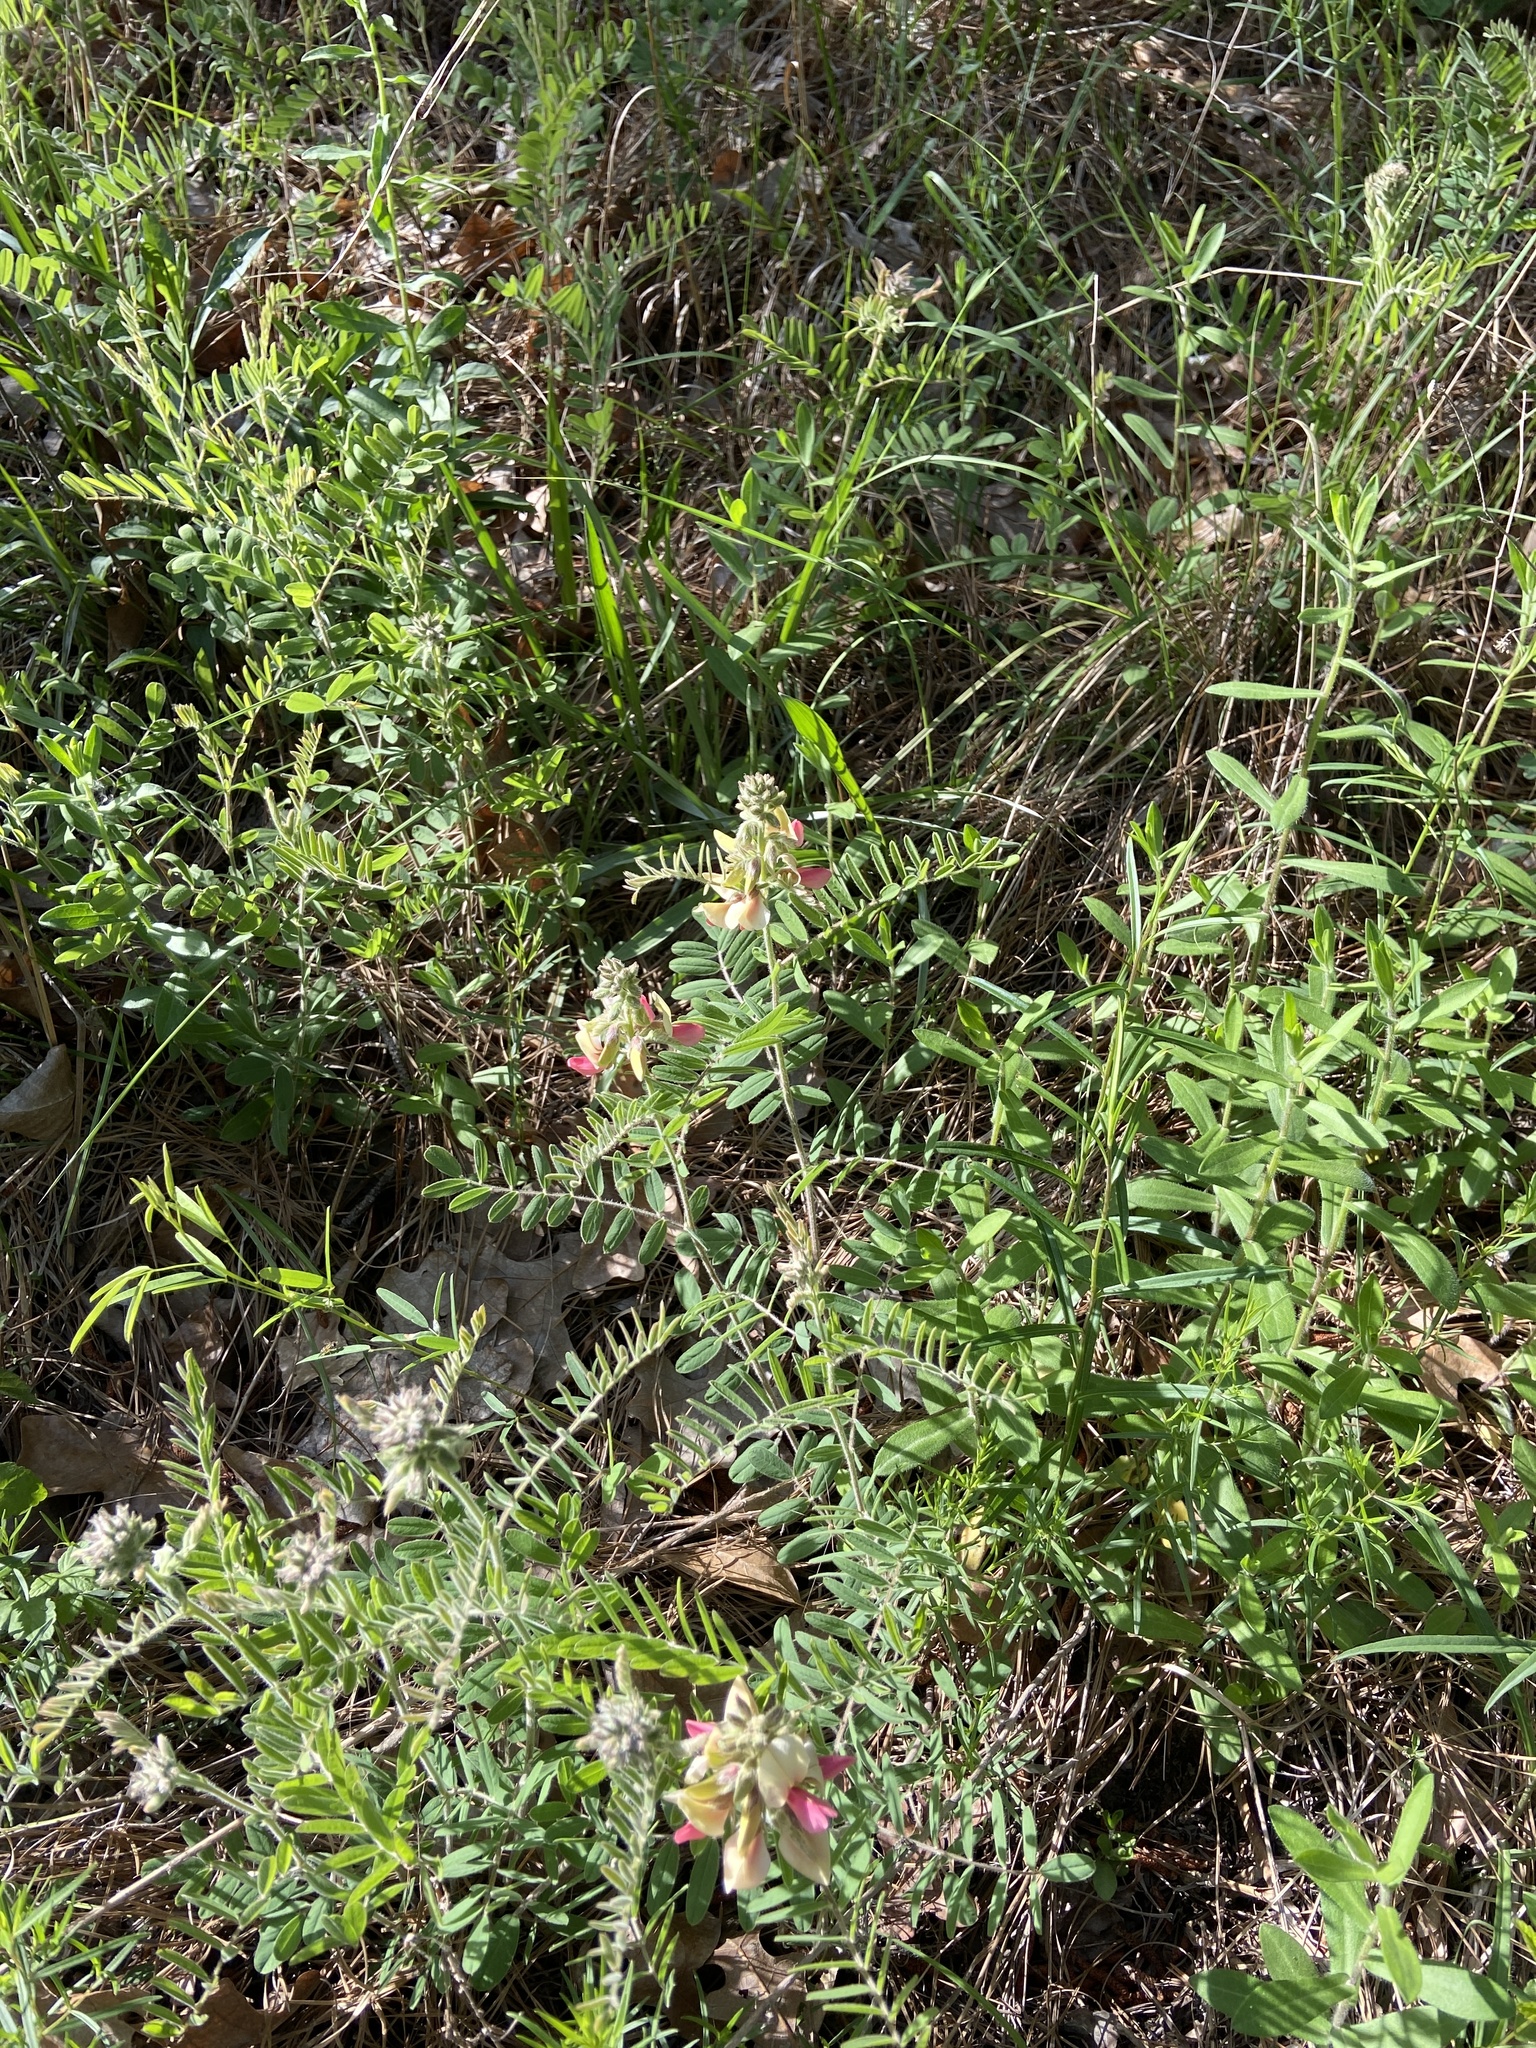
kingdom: Plantae
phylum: Tracheophyta
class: Magnoliopsida
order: Fabales
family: Fabaceae
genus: Tephrosia
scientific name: Tephrosia virginiana
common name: Rabbit-pea
